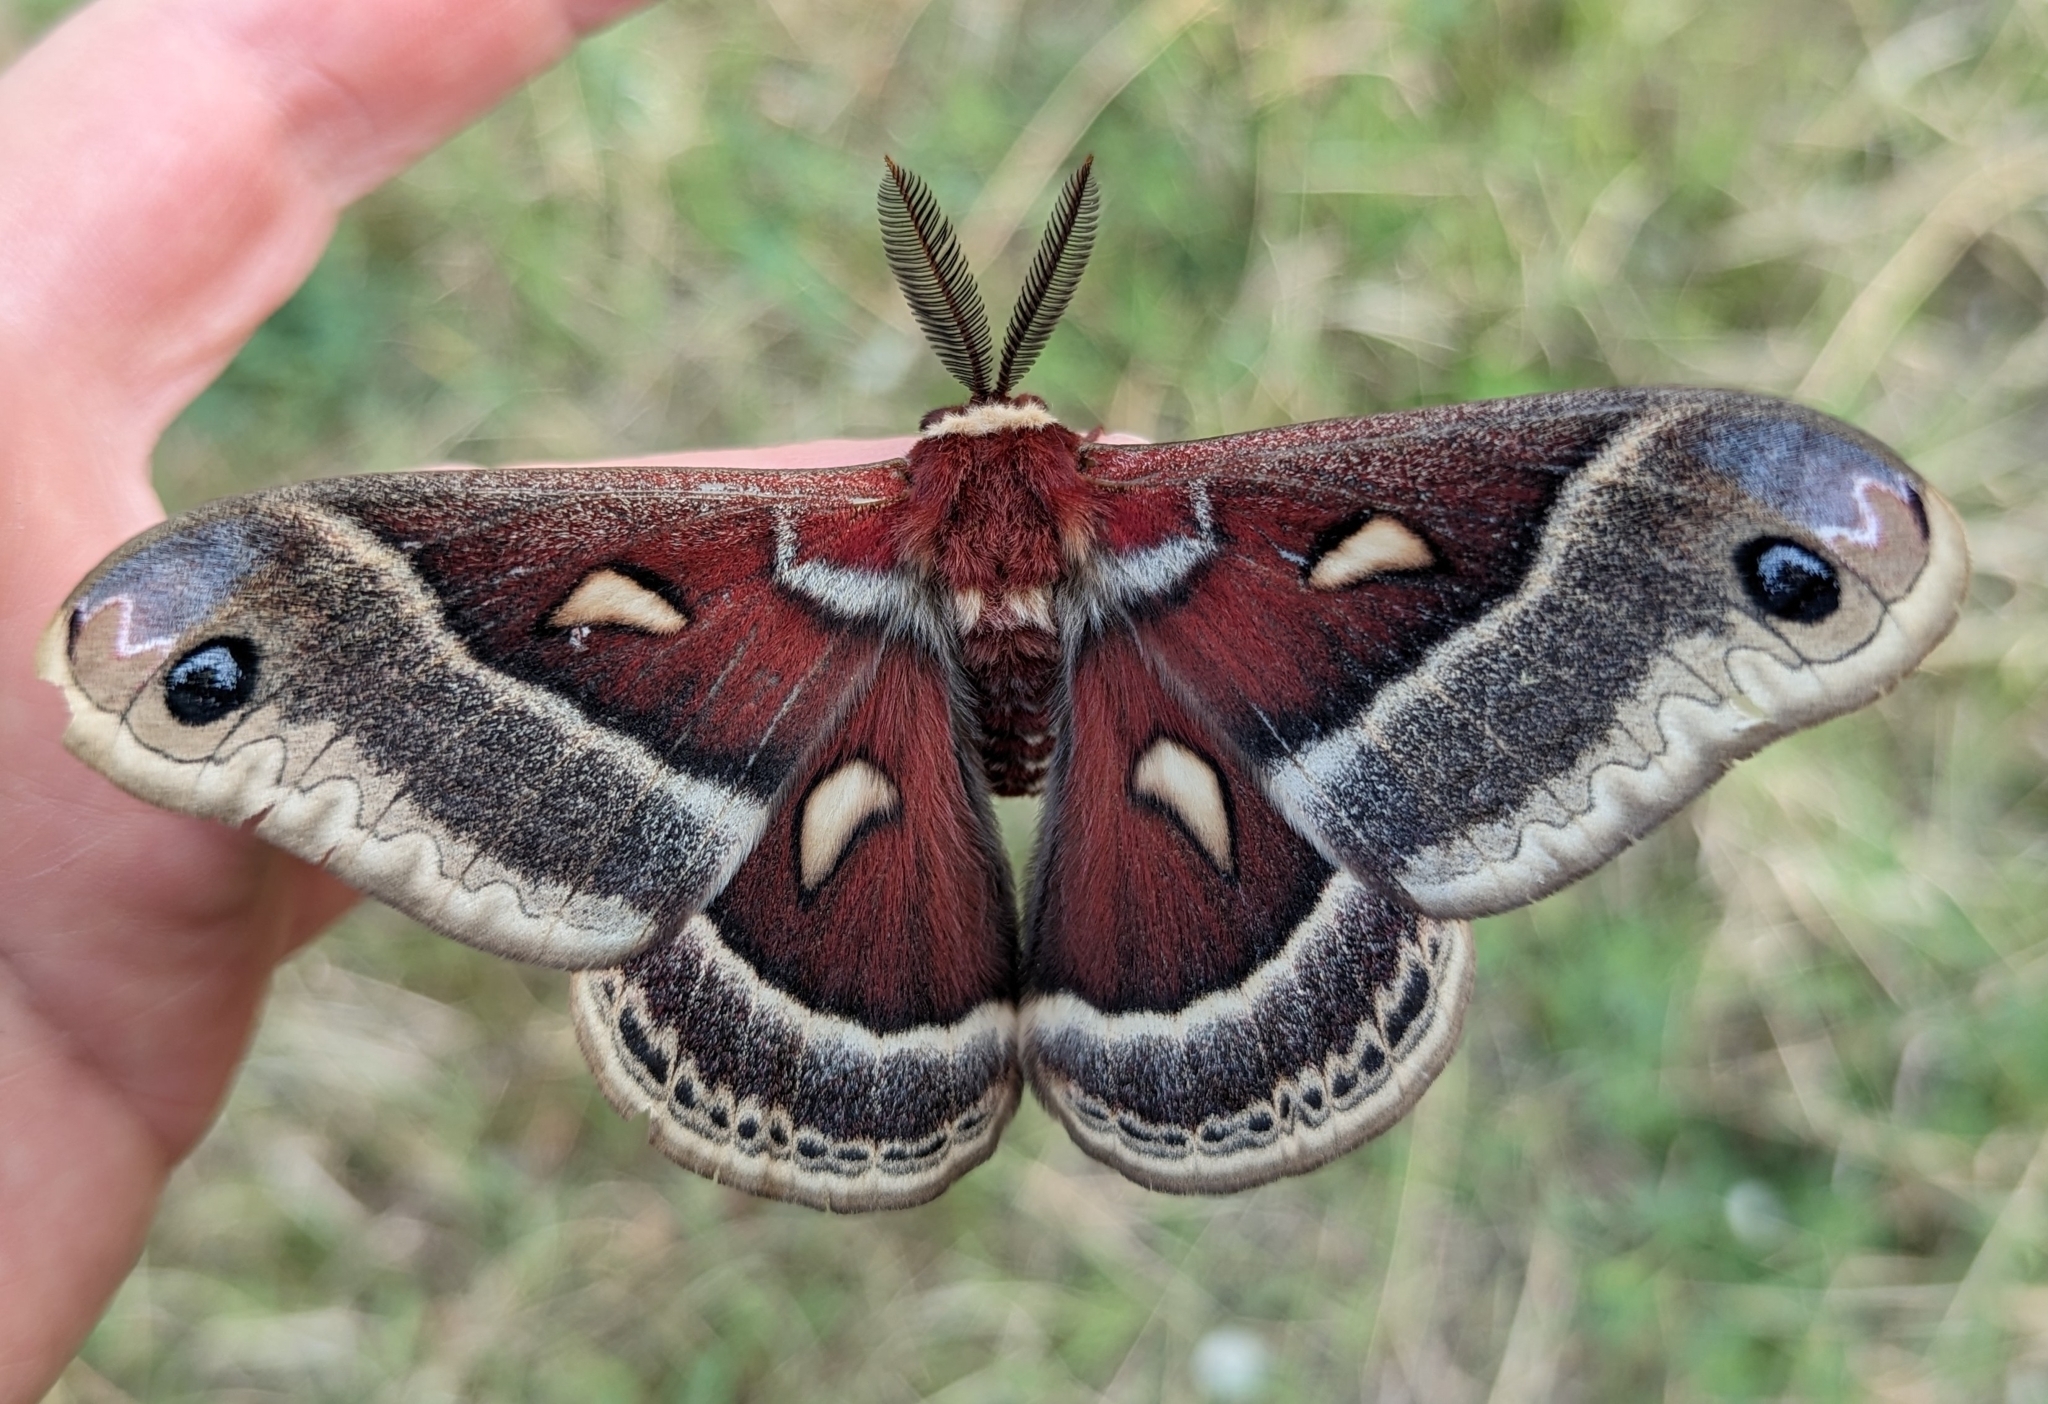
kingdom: Animalia
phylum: Arthropoda
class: Insecta
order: Lepidoptera
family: Saturniidae
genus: Hyalophora
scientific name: Hyalophora gloveri
